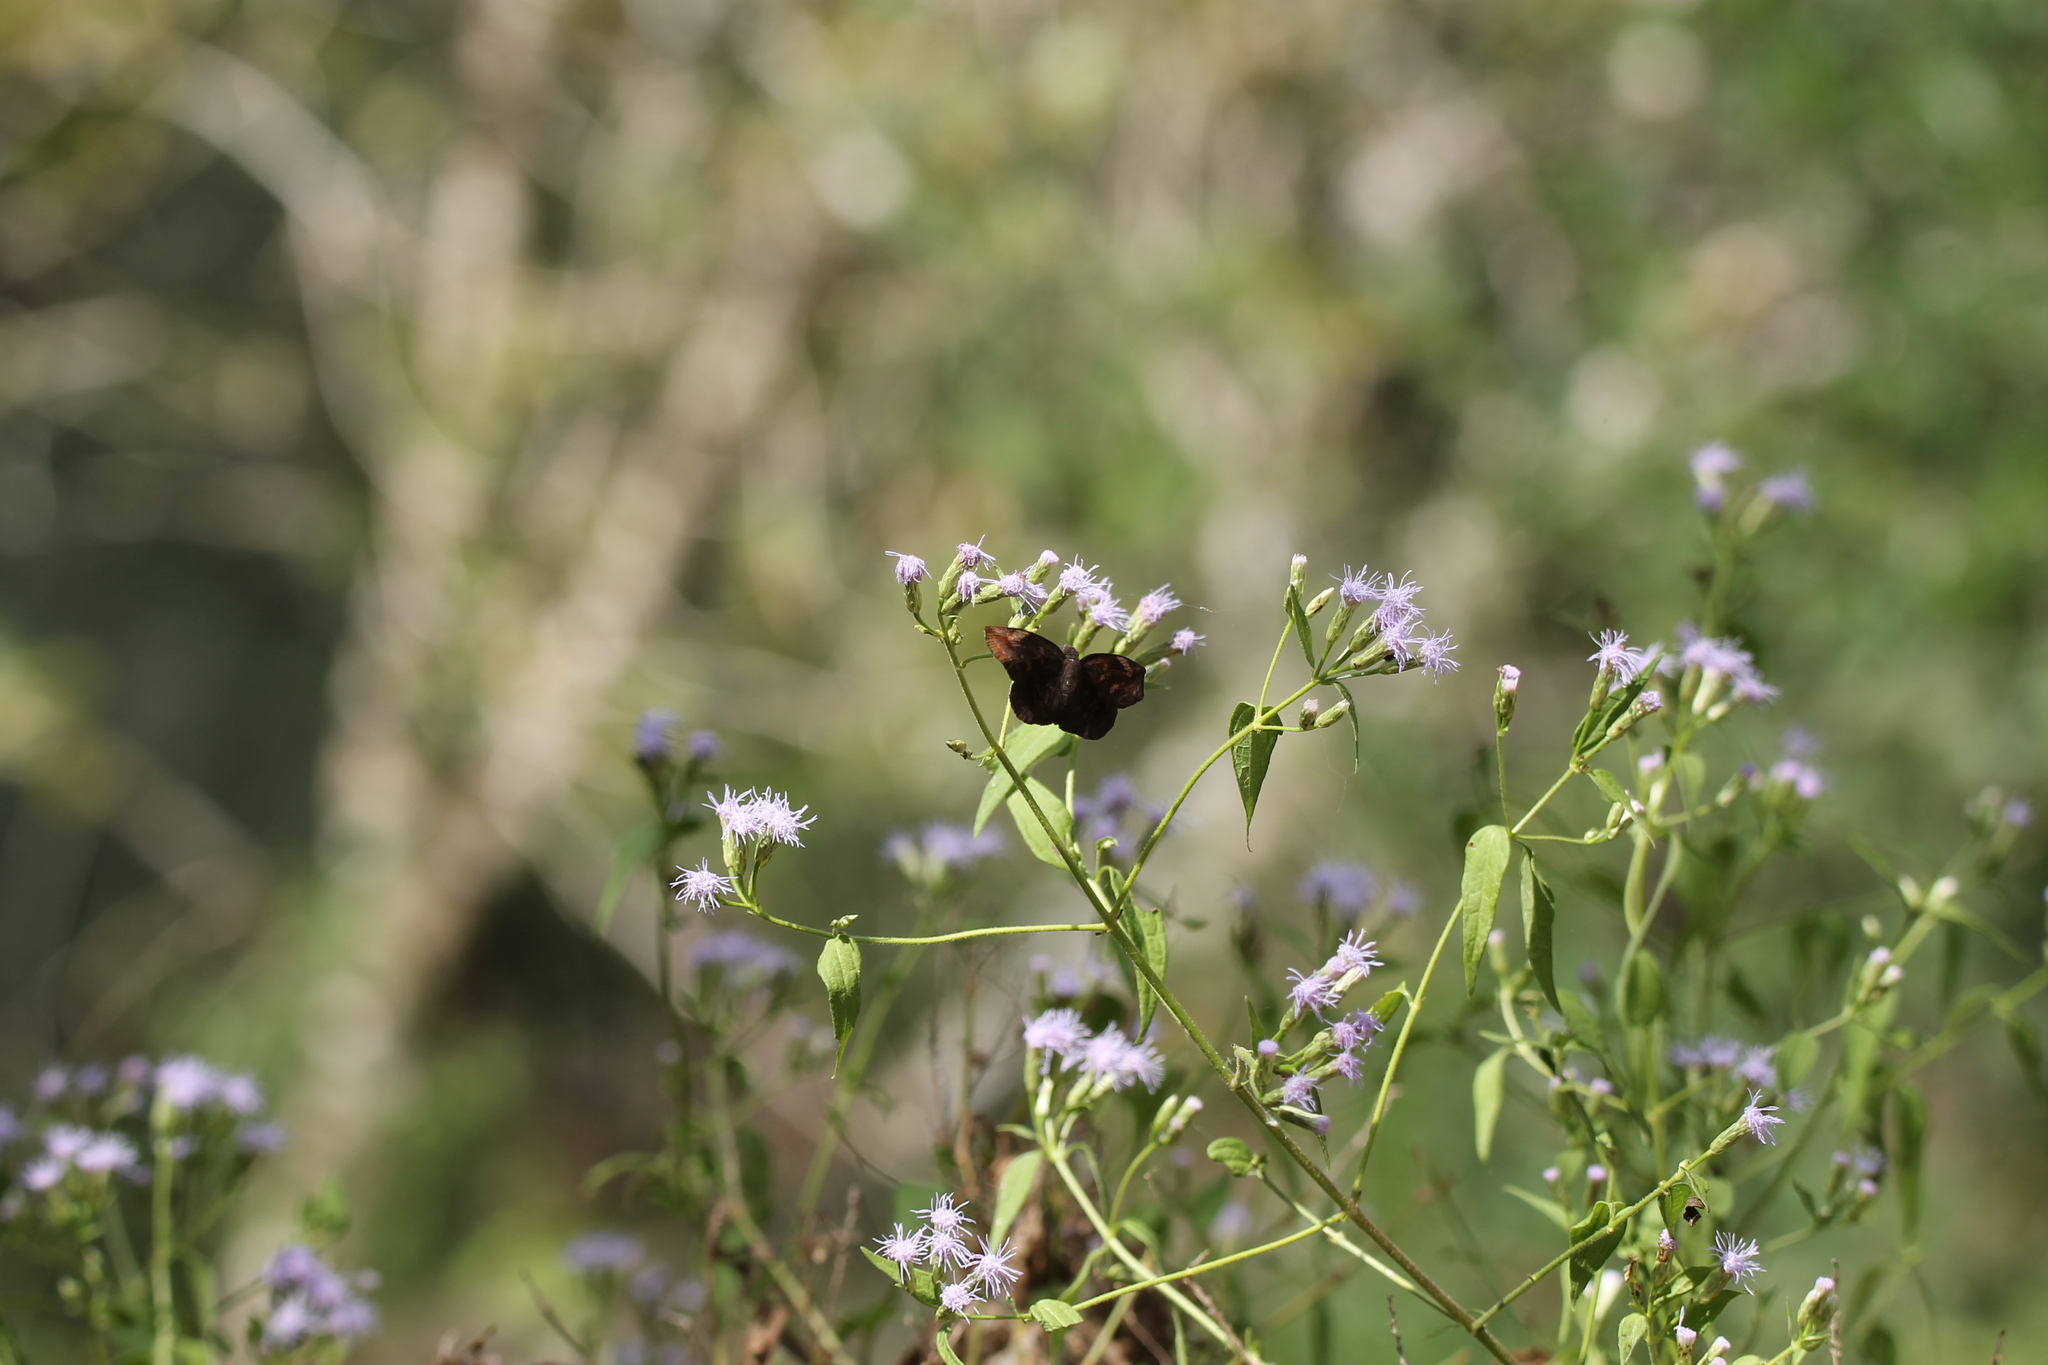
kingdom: Animalia
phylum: Arthropoda
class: Insecta
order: Lepidoptera
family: Hesperiidae
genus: Achlyodes
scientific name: Achlyodes thraso
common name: Sickle-winged skipper
